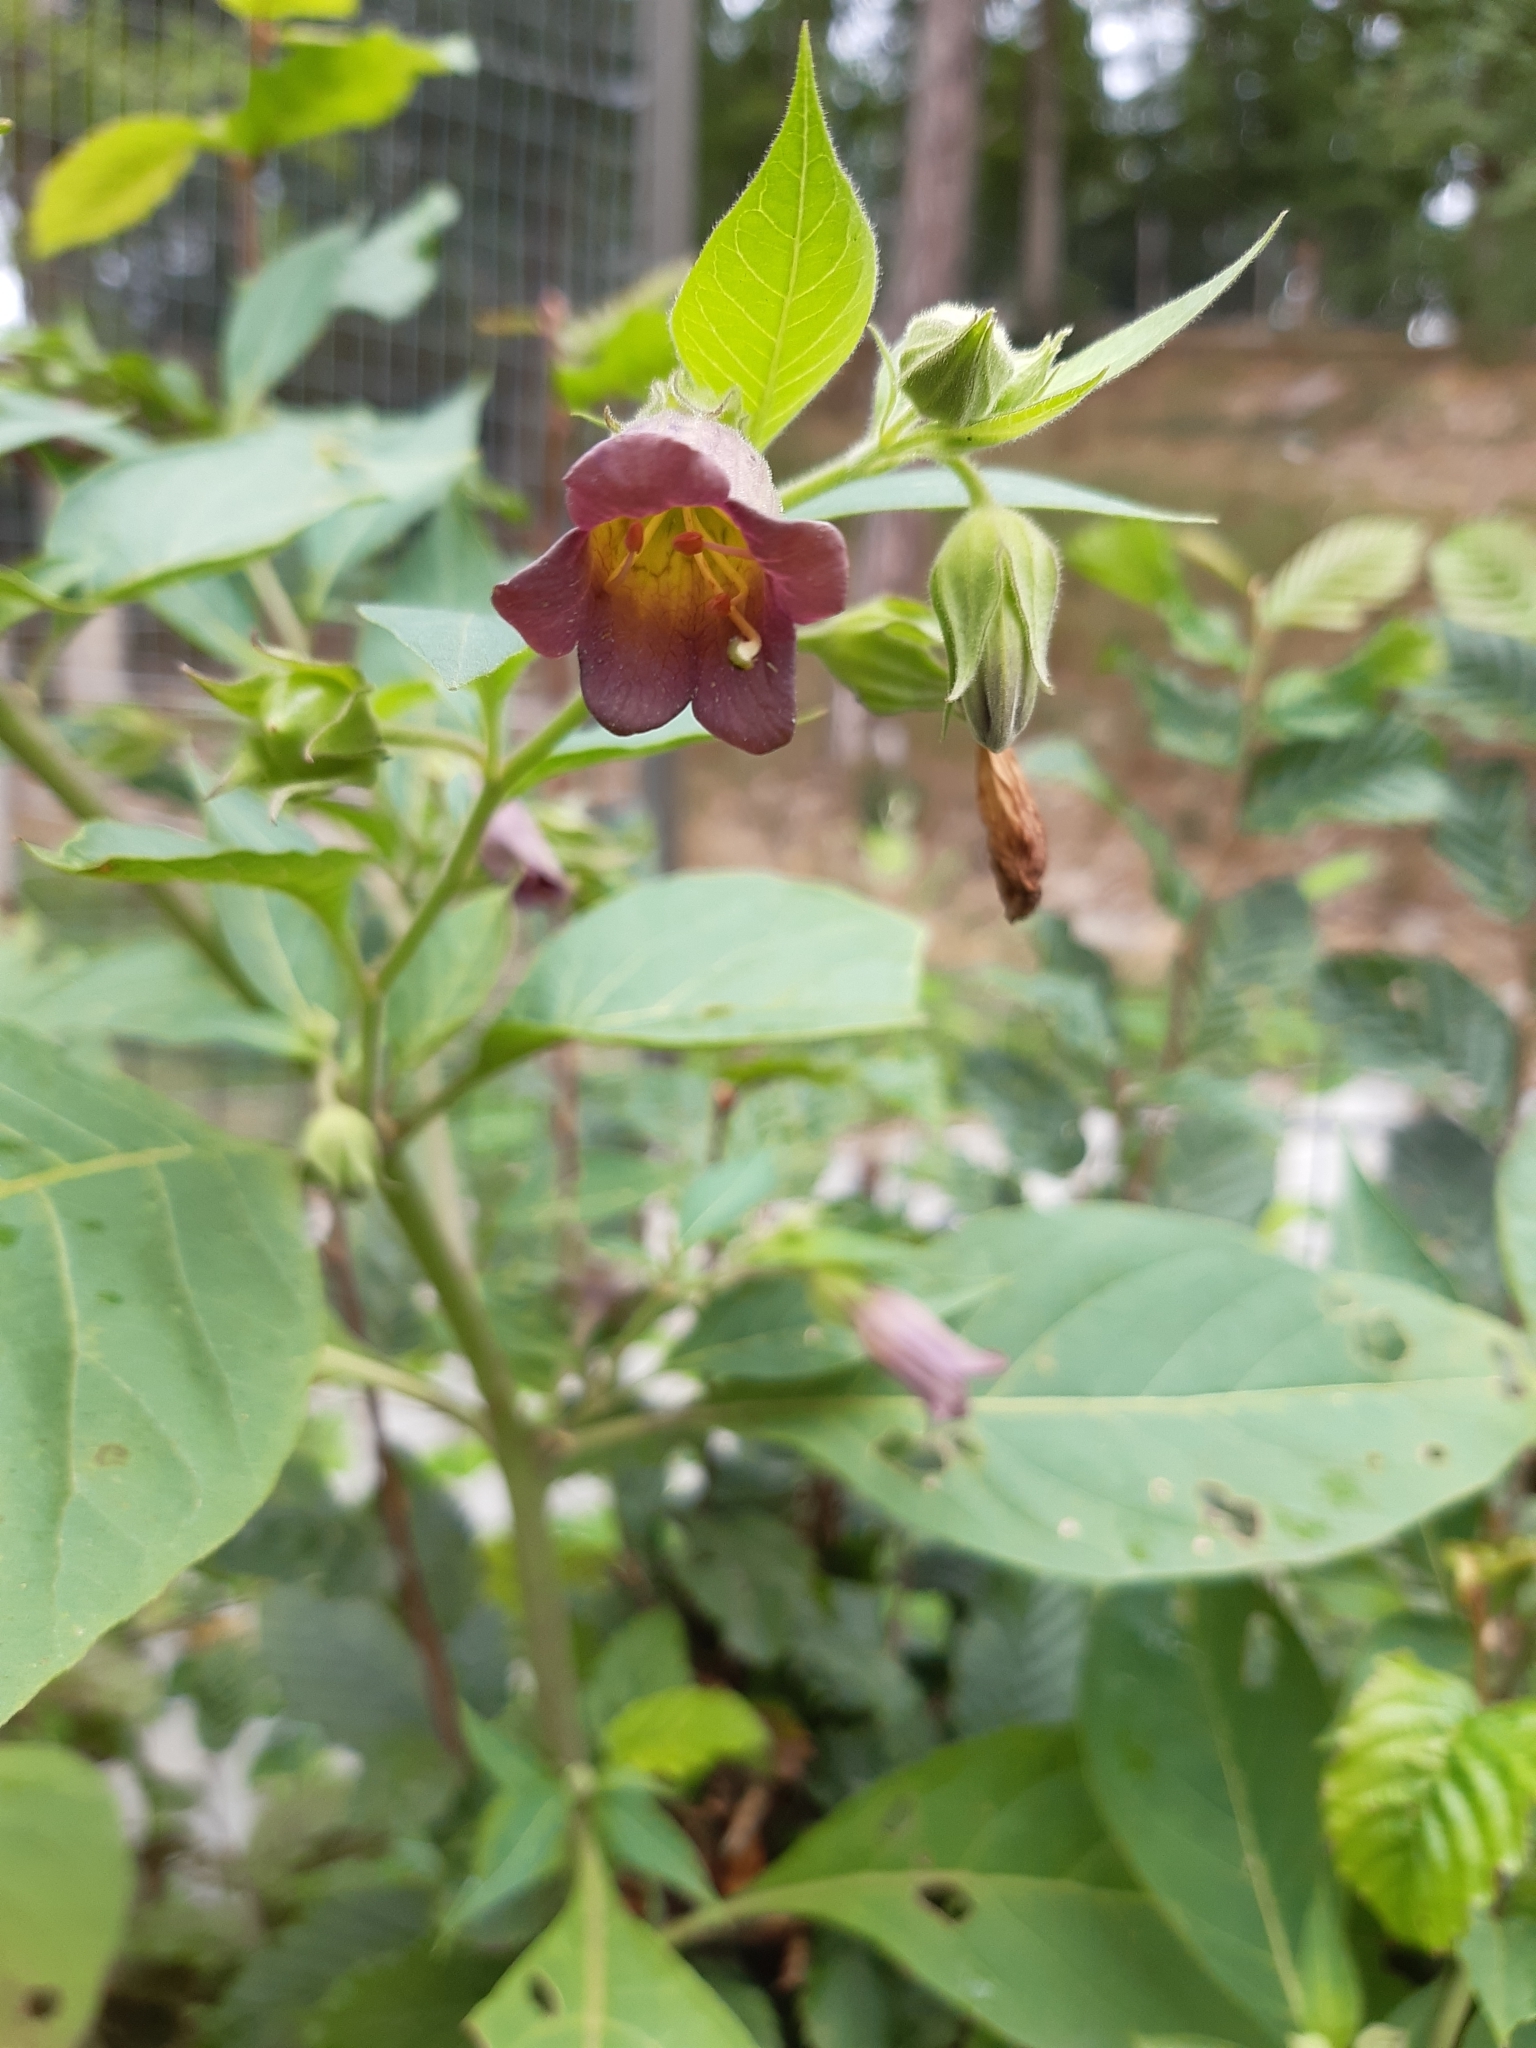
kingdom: Plantae
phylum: Tracheophyta
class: Magnoliopsida
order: Solanales
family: Solanaceae
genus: Atropa
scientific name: Atropa belladonna
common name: Deadly nightshade
